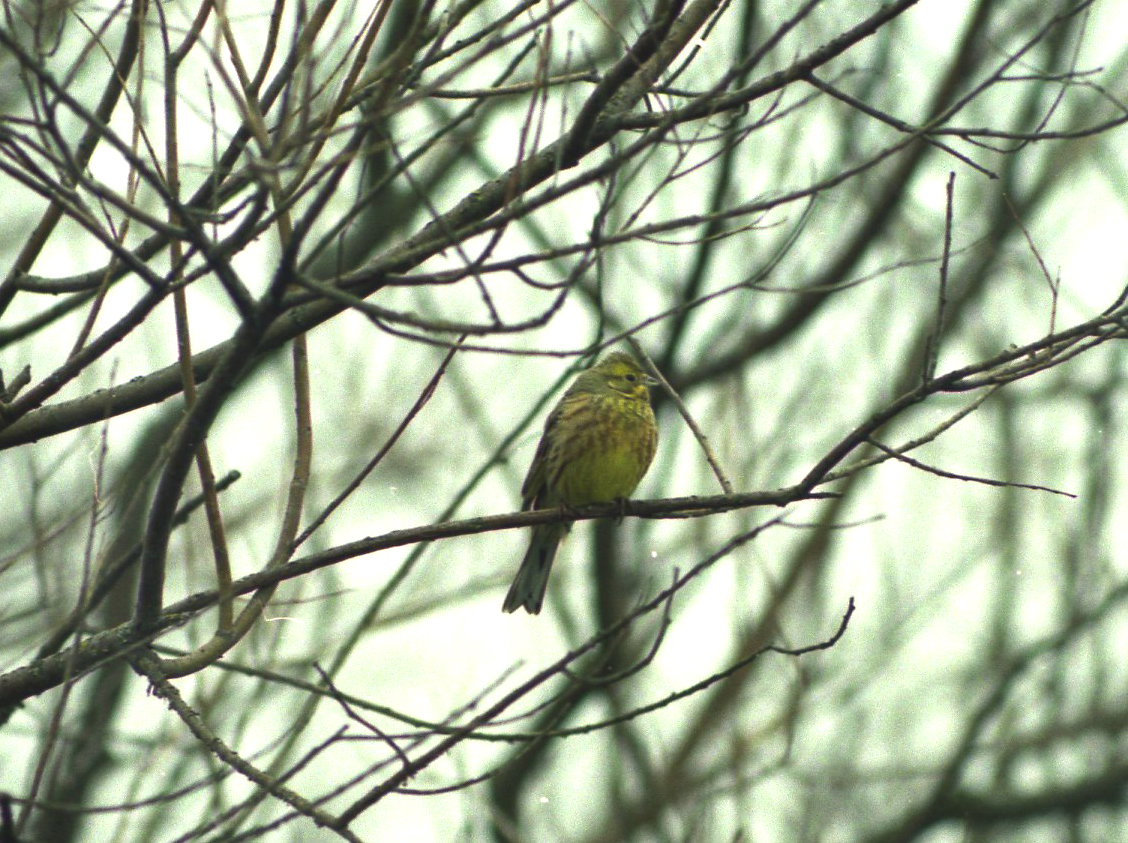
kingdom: Animalia
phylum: Chordata
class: Aves
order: Passeriformes
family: Emberizidae
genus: Emberiza
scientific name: Emberiza citrinella
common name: Yellowhammer
